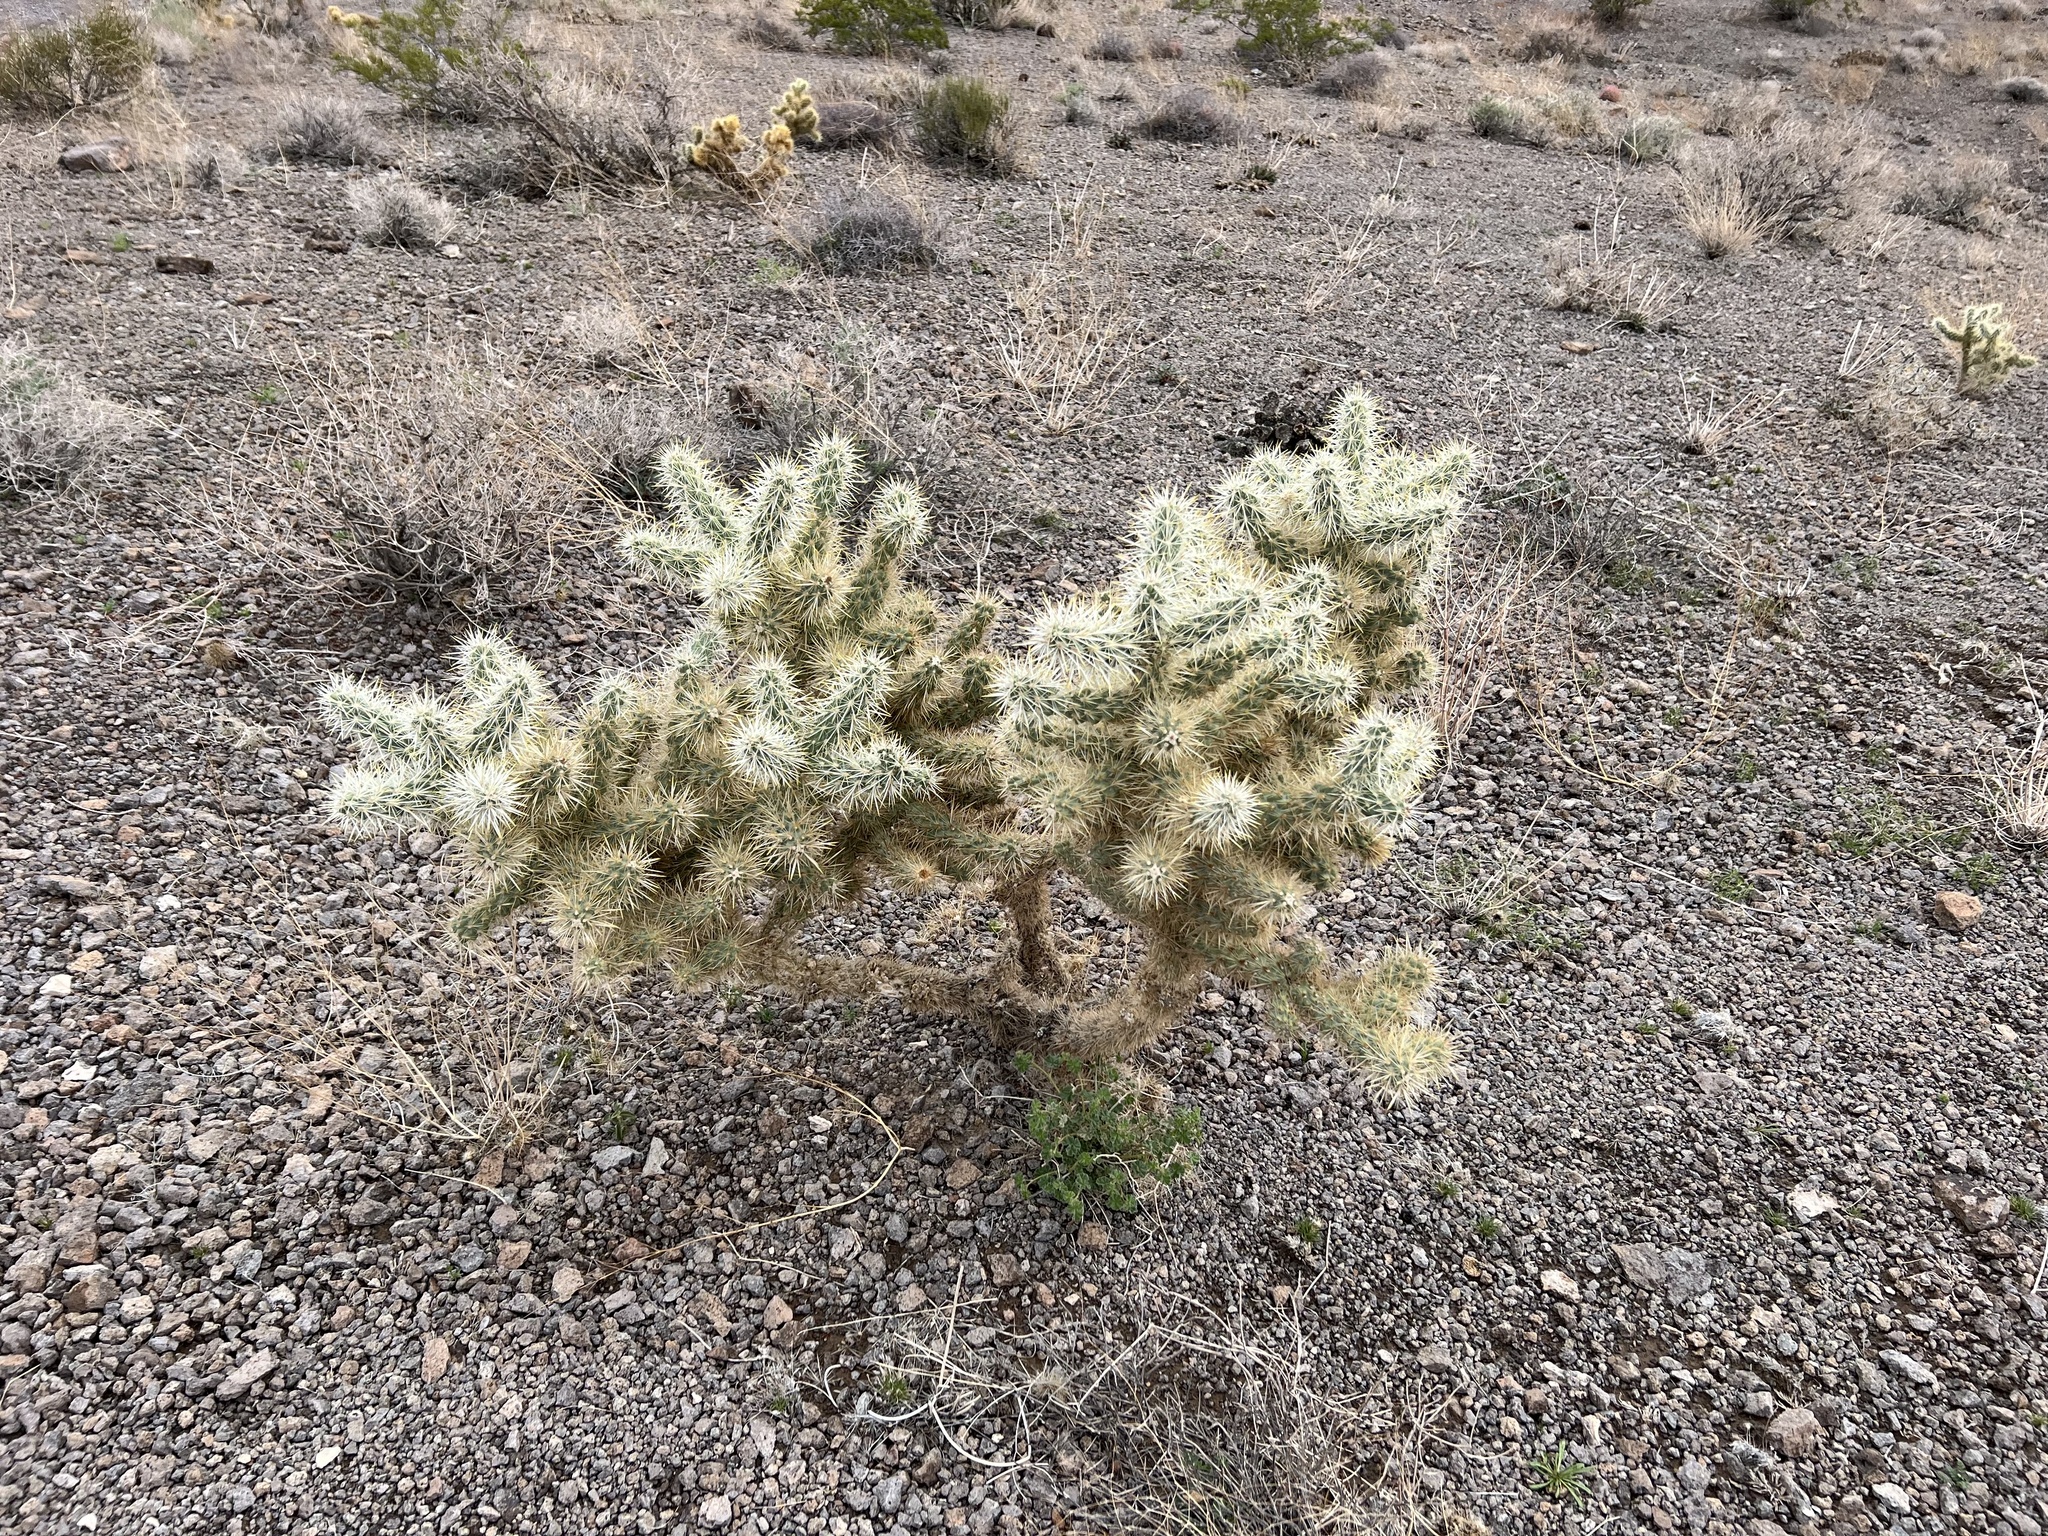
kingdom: Plantae
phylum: Tracheophyta
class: Magnoliopsida
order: Caryophyllales
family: Cactaceae
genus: Cylindropuntia
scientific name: Cylindropuntia echinocarpa
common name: Ground cholla
